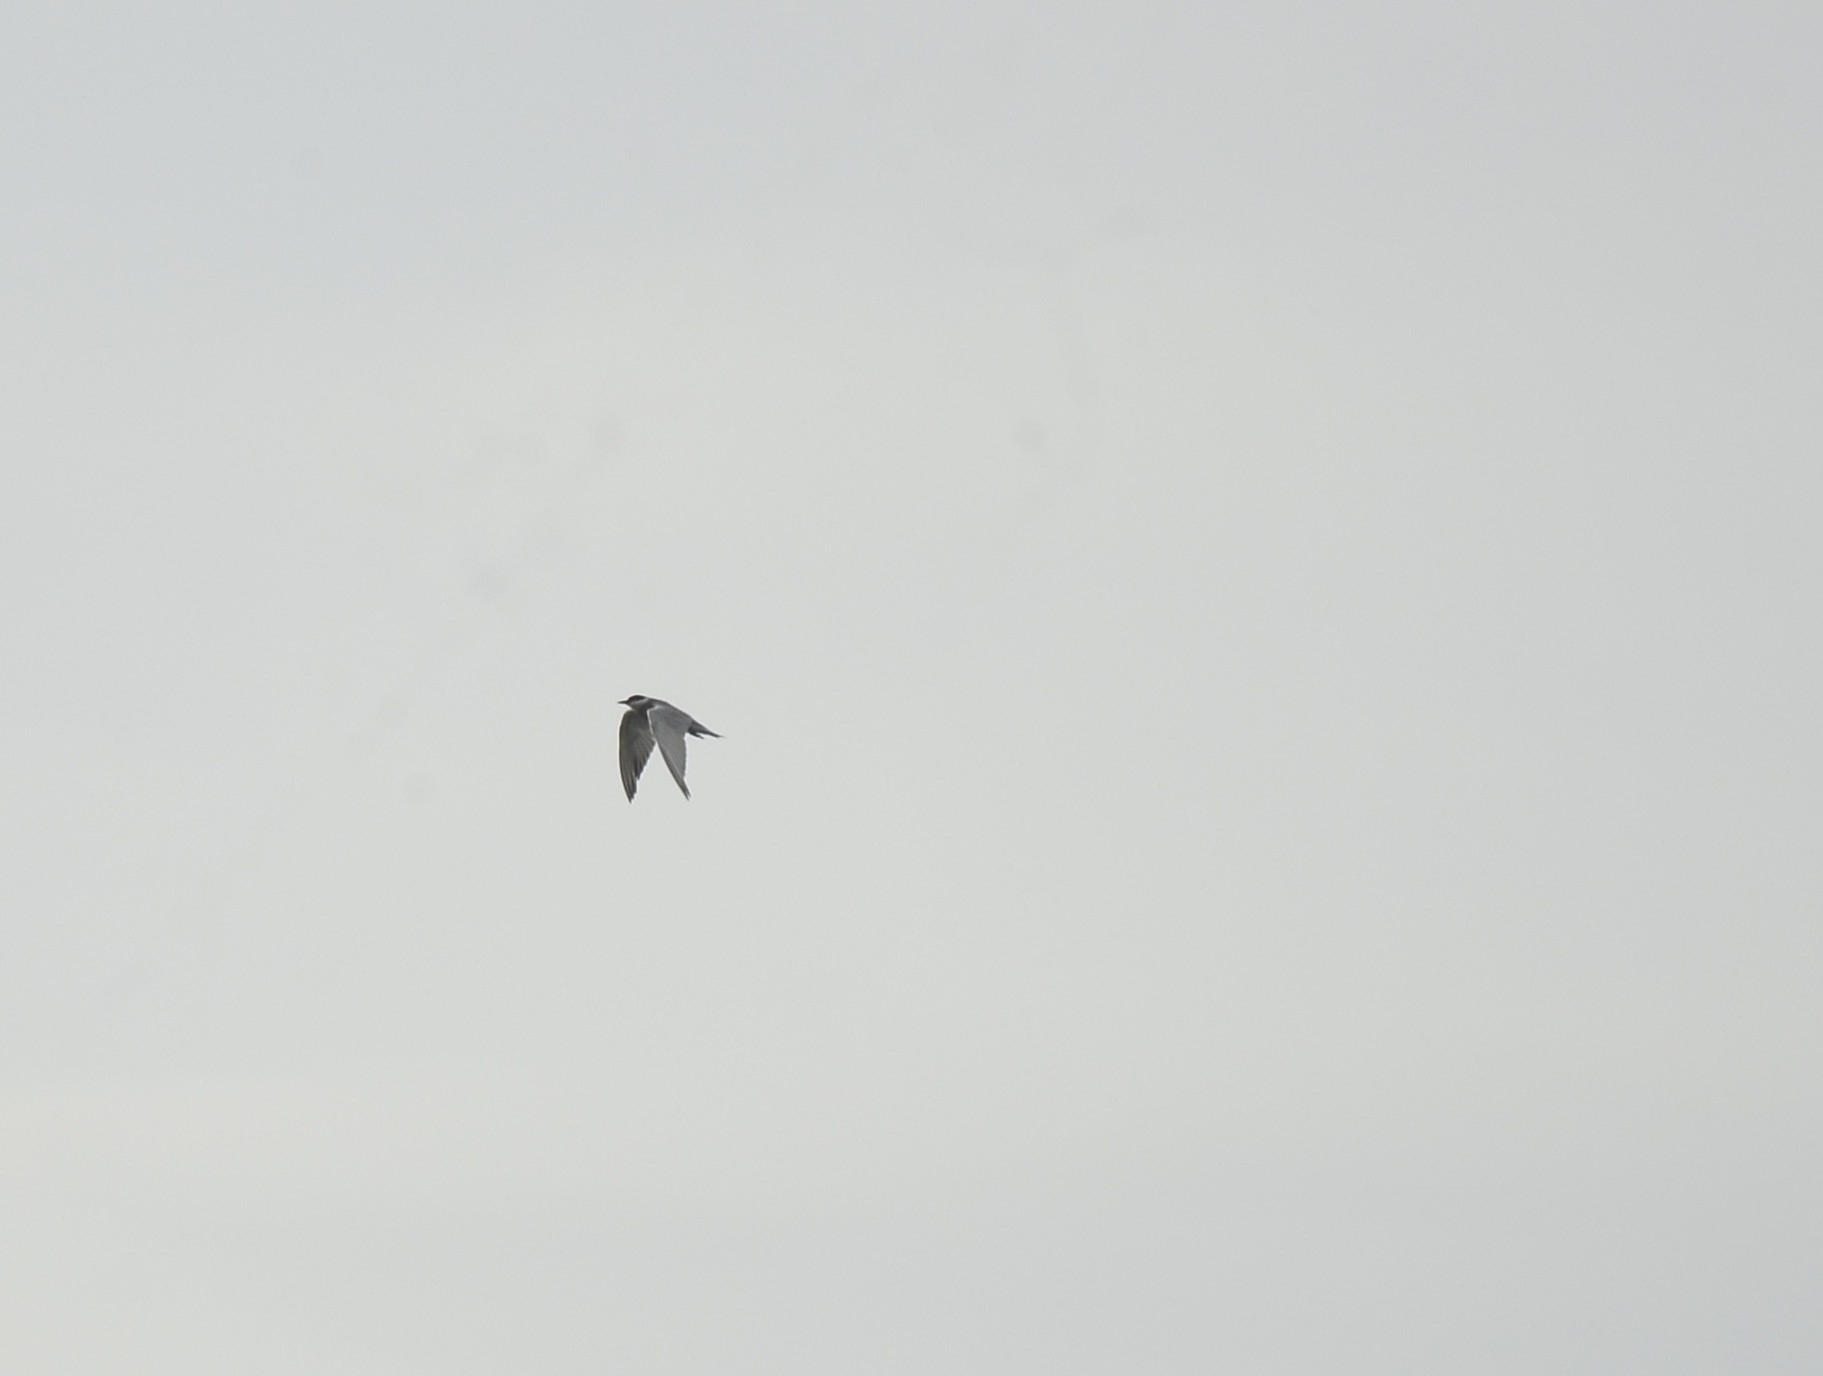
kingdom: Animalia
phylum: Chordata
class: Aves
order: Charadriiformes
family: Laridae
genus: Chlidonias
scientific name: Chlidonias hybrida
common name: Whiskered tern
